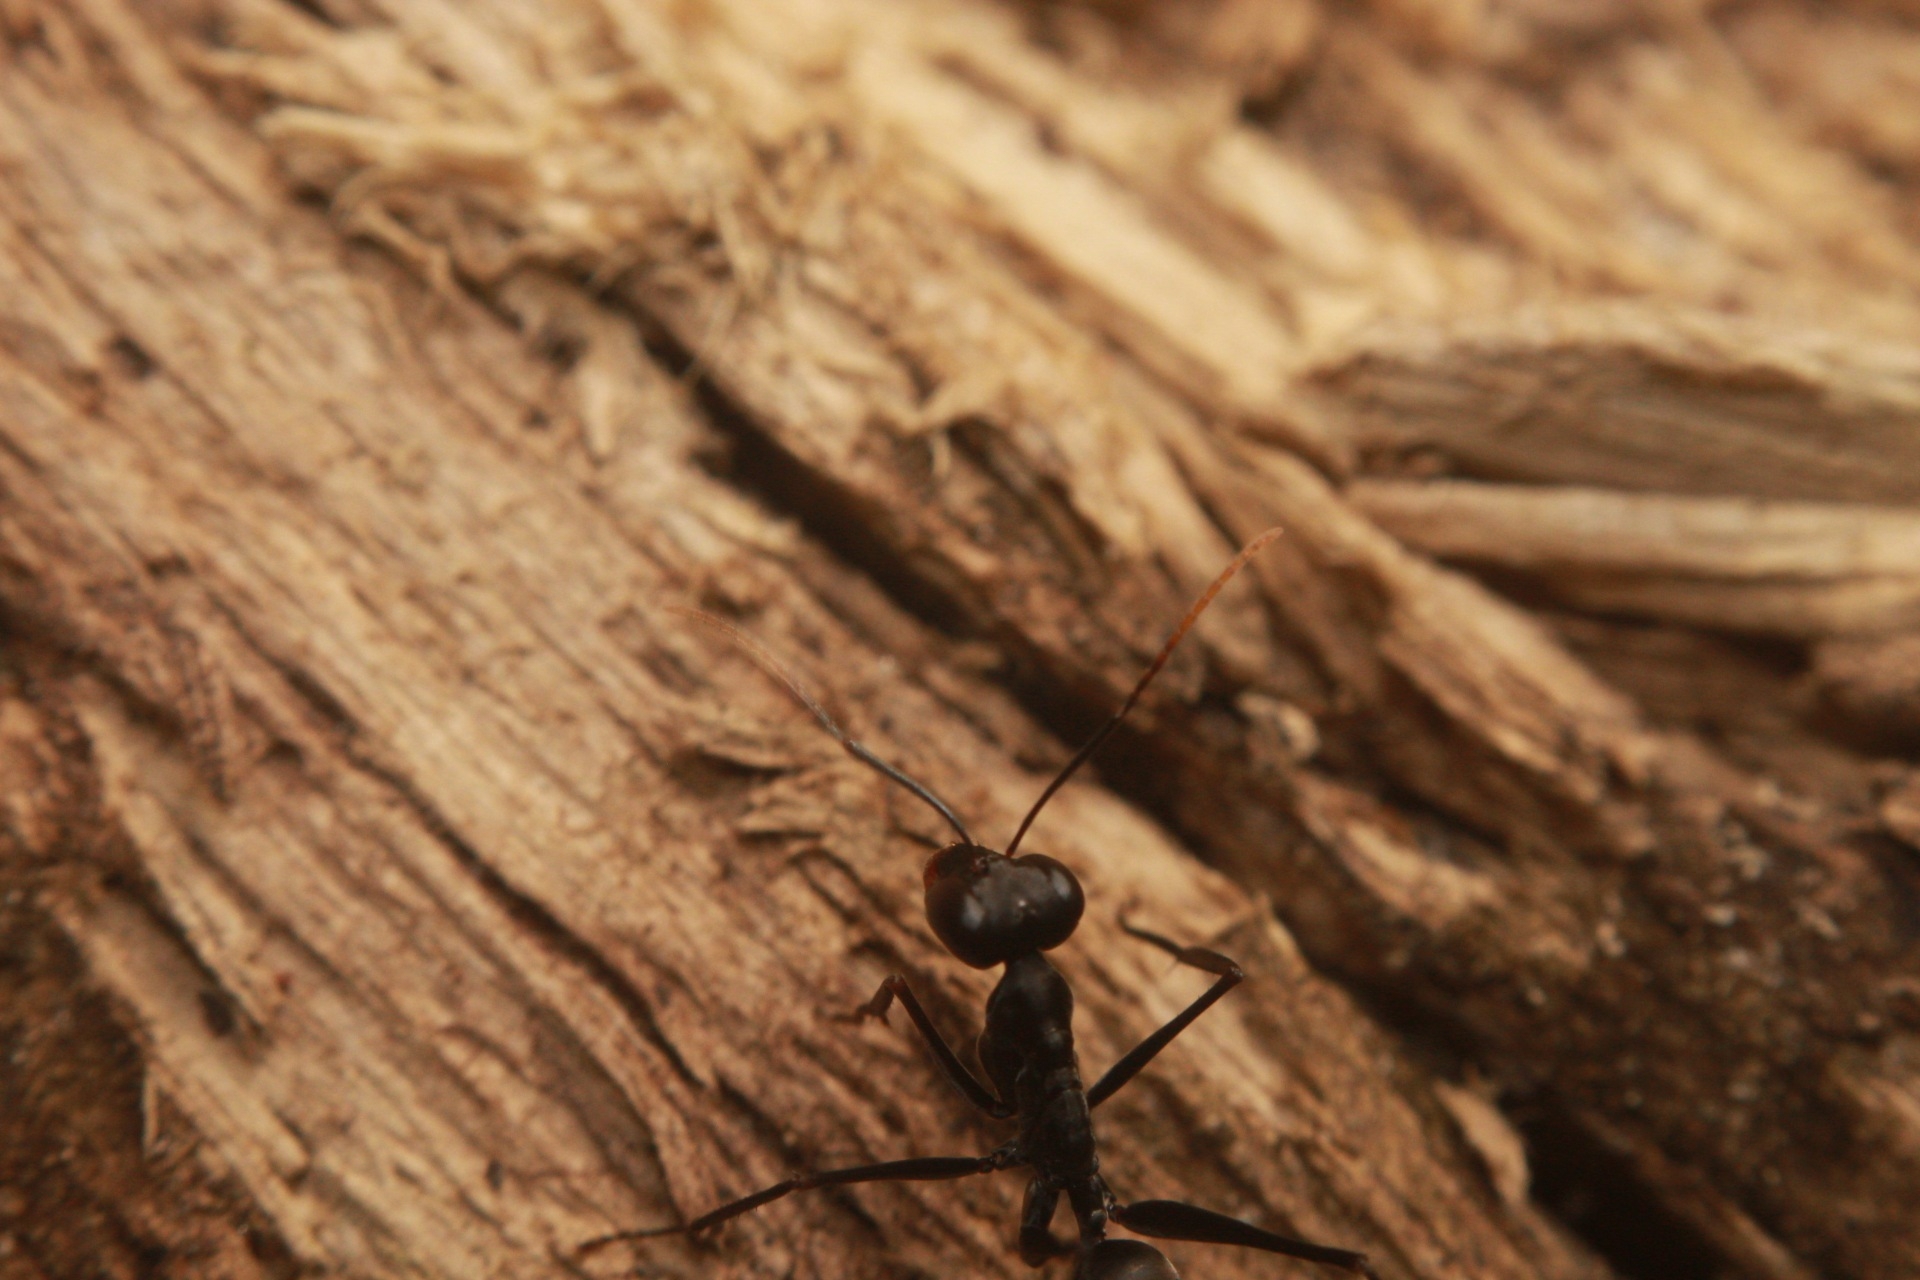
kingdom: Animalia
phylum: Arthropoda
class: Insecta
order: Hymenoptera
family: Formicidae
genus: Gigantiops
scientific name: Gigantiops destructor
